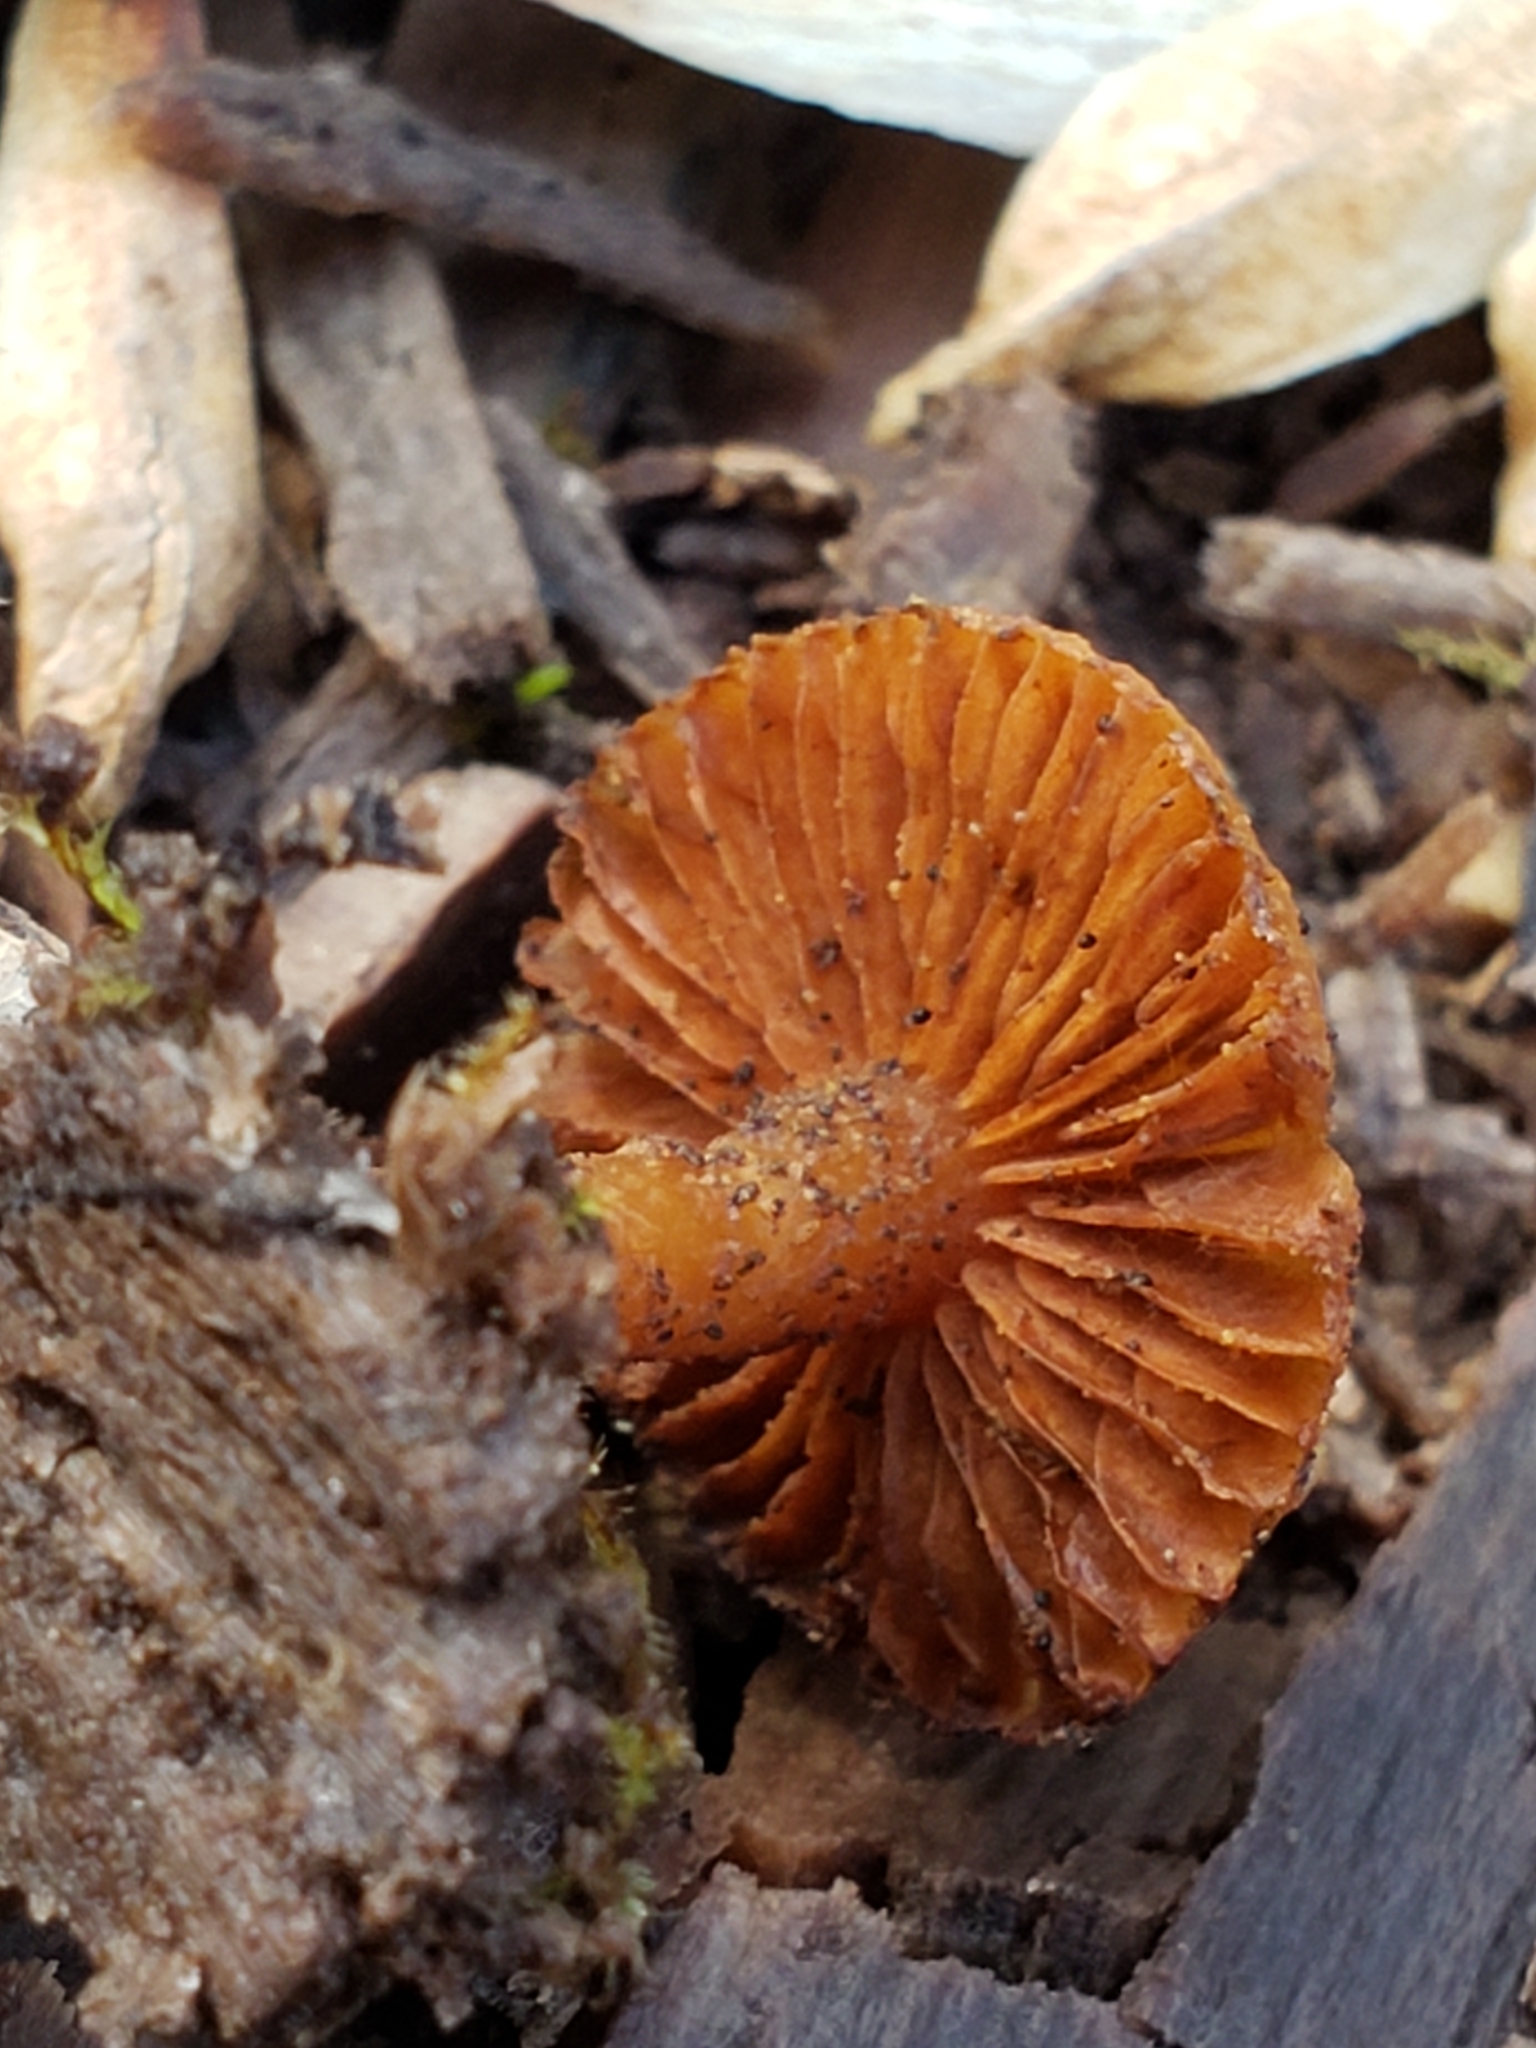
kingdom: Fungi
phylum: Basidiomycota
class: Agaricomycetes
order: Agaricales
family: Hymenogastraceae
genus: Galerina
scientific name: Galerina marginata
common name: Funeral bell
